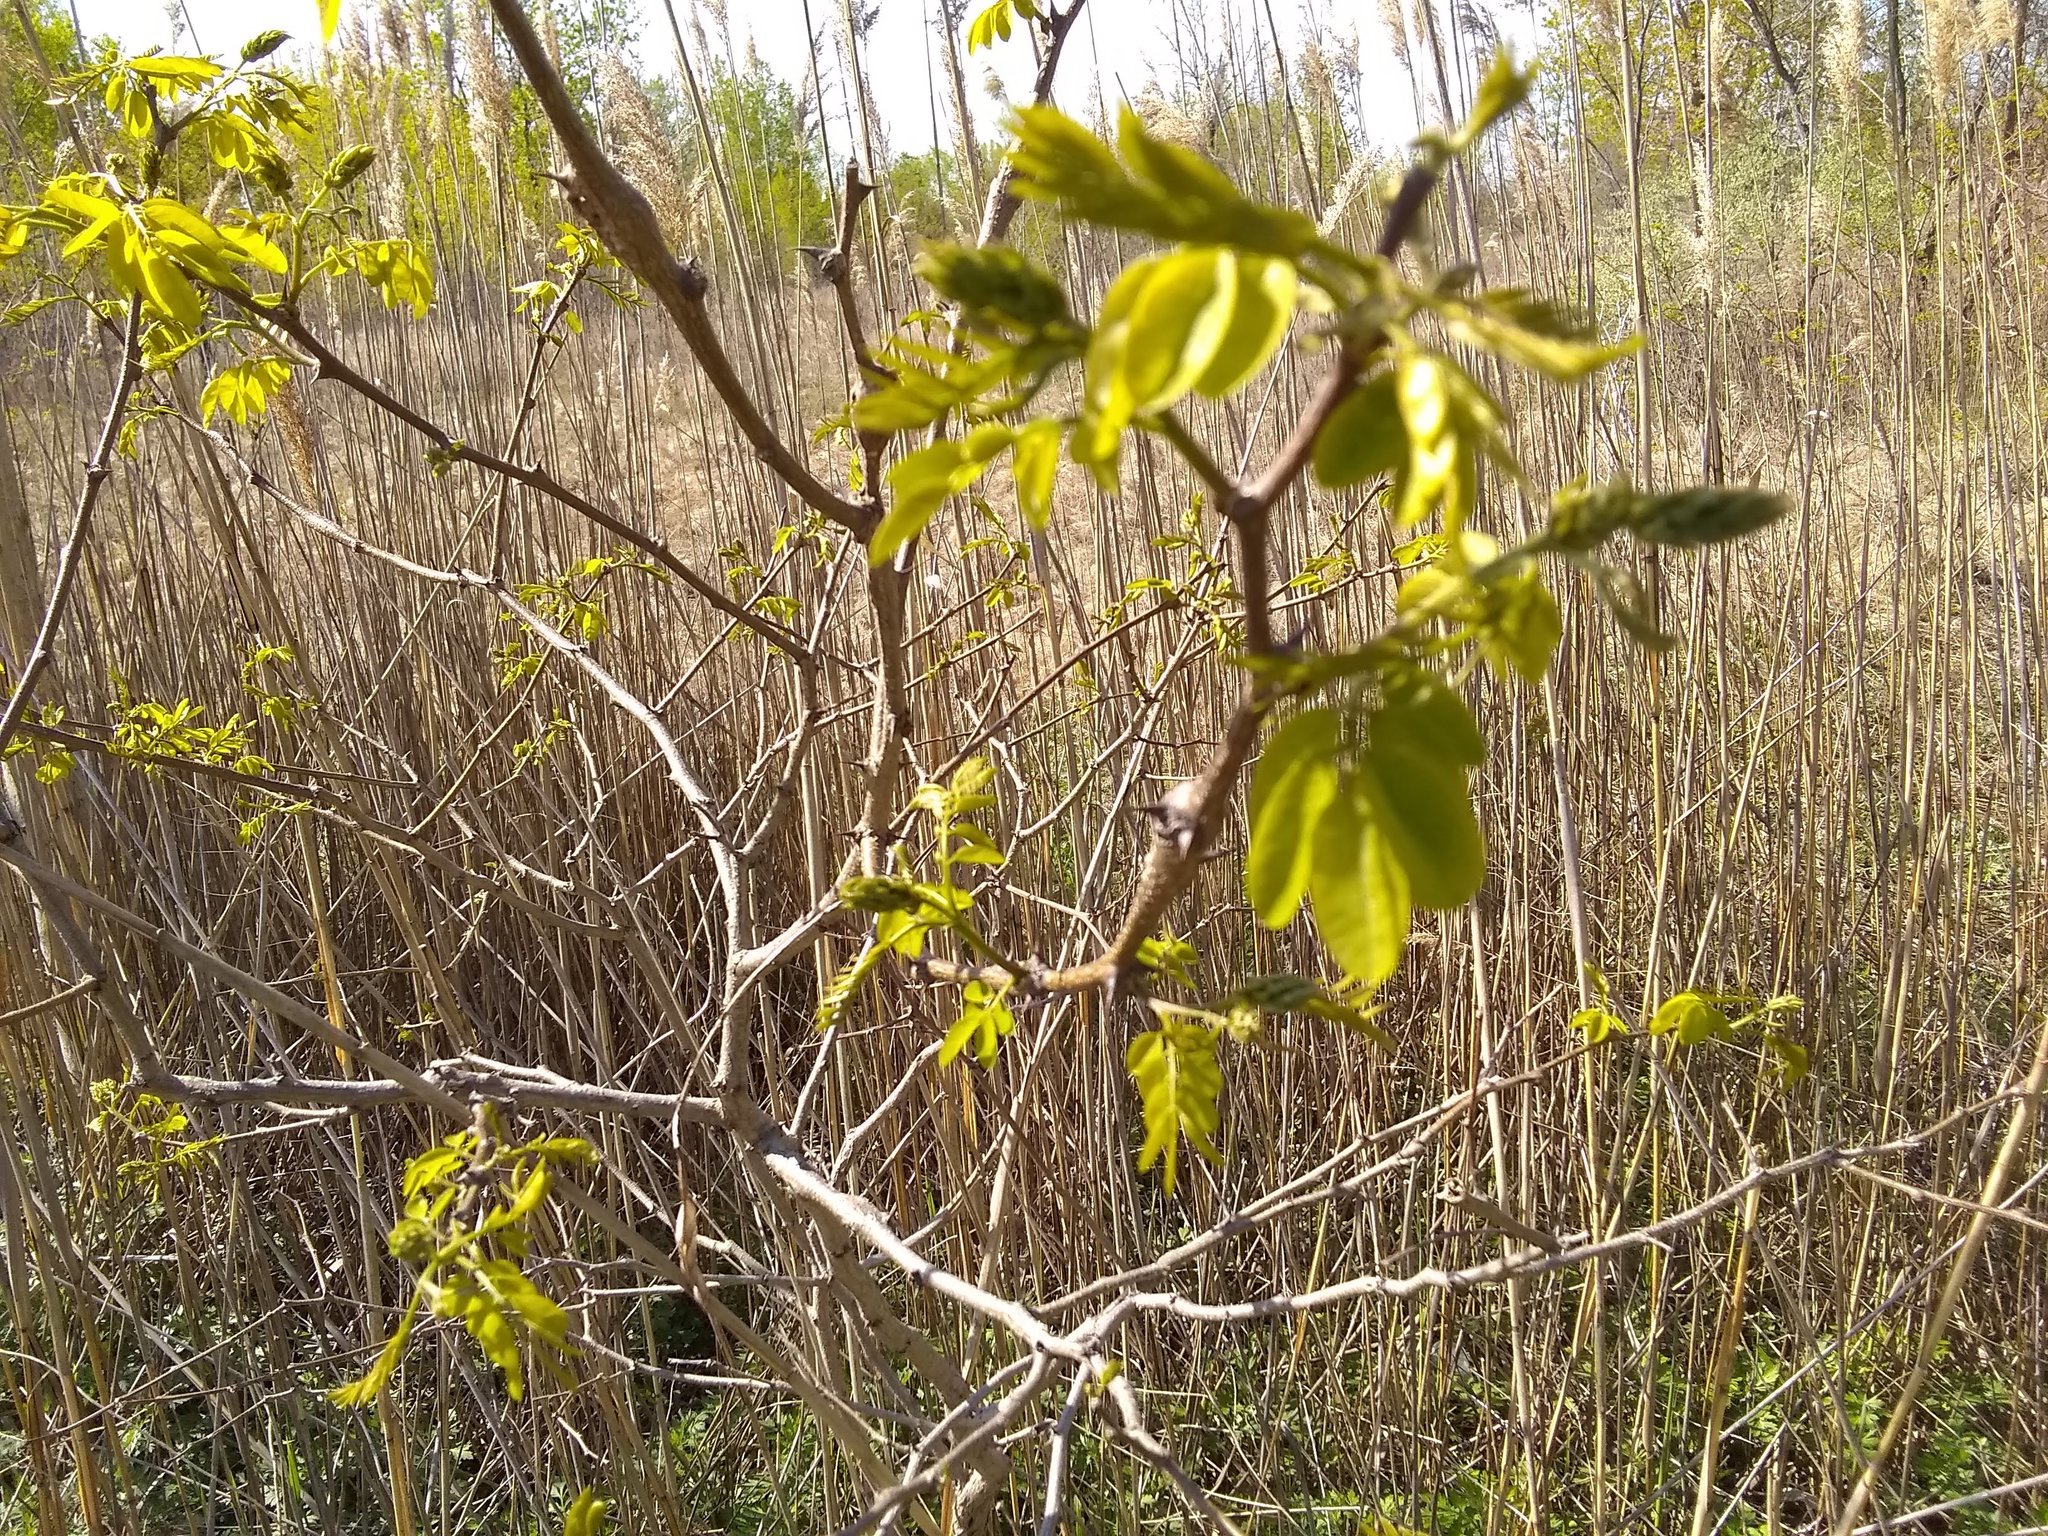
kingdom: Plantae
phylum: Tracheophyta
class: Magnoliopsida
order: Fabales
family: Fabaceae
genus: Robinia
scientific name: Robinia pseudoacacia
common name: Black locust
